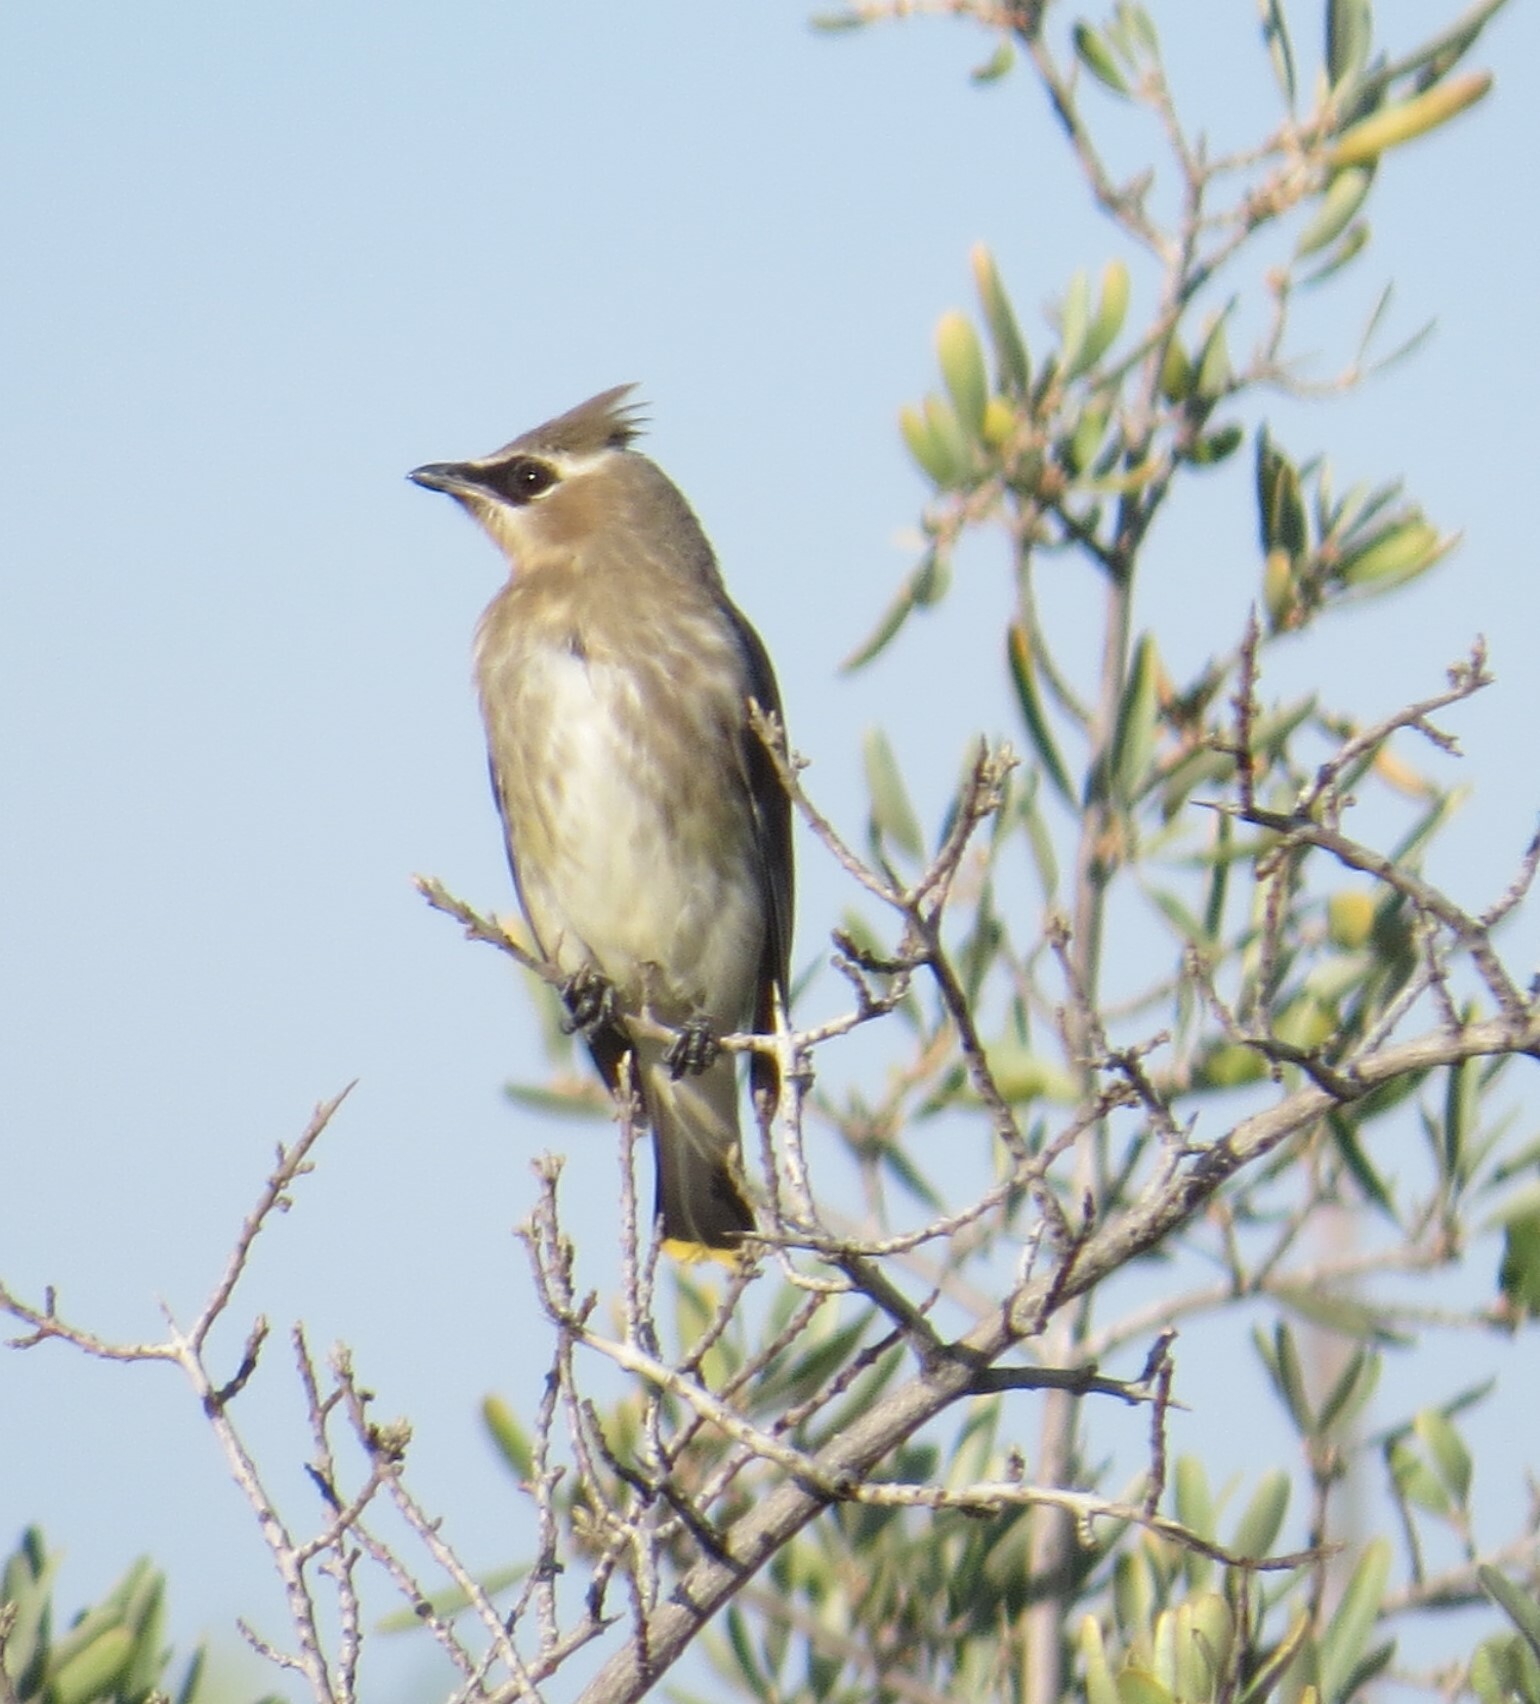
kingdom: Animalia
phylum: Chordata
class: Aves
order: Passeriformes
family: Bombycillidae
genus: Bombycilla
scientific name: Bombycilla cedrorum
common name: Cedar waxwing
